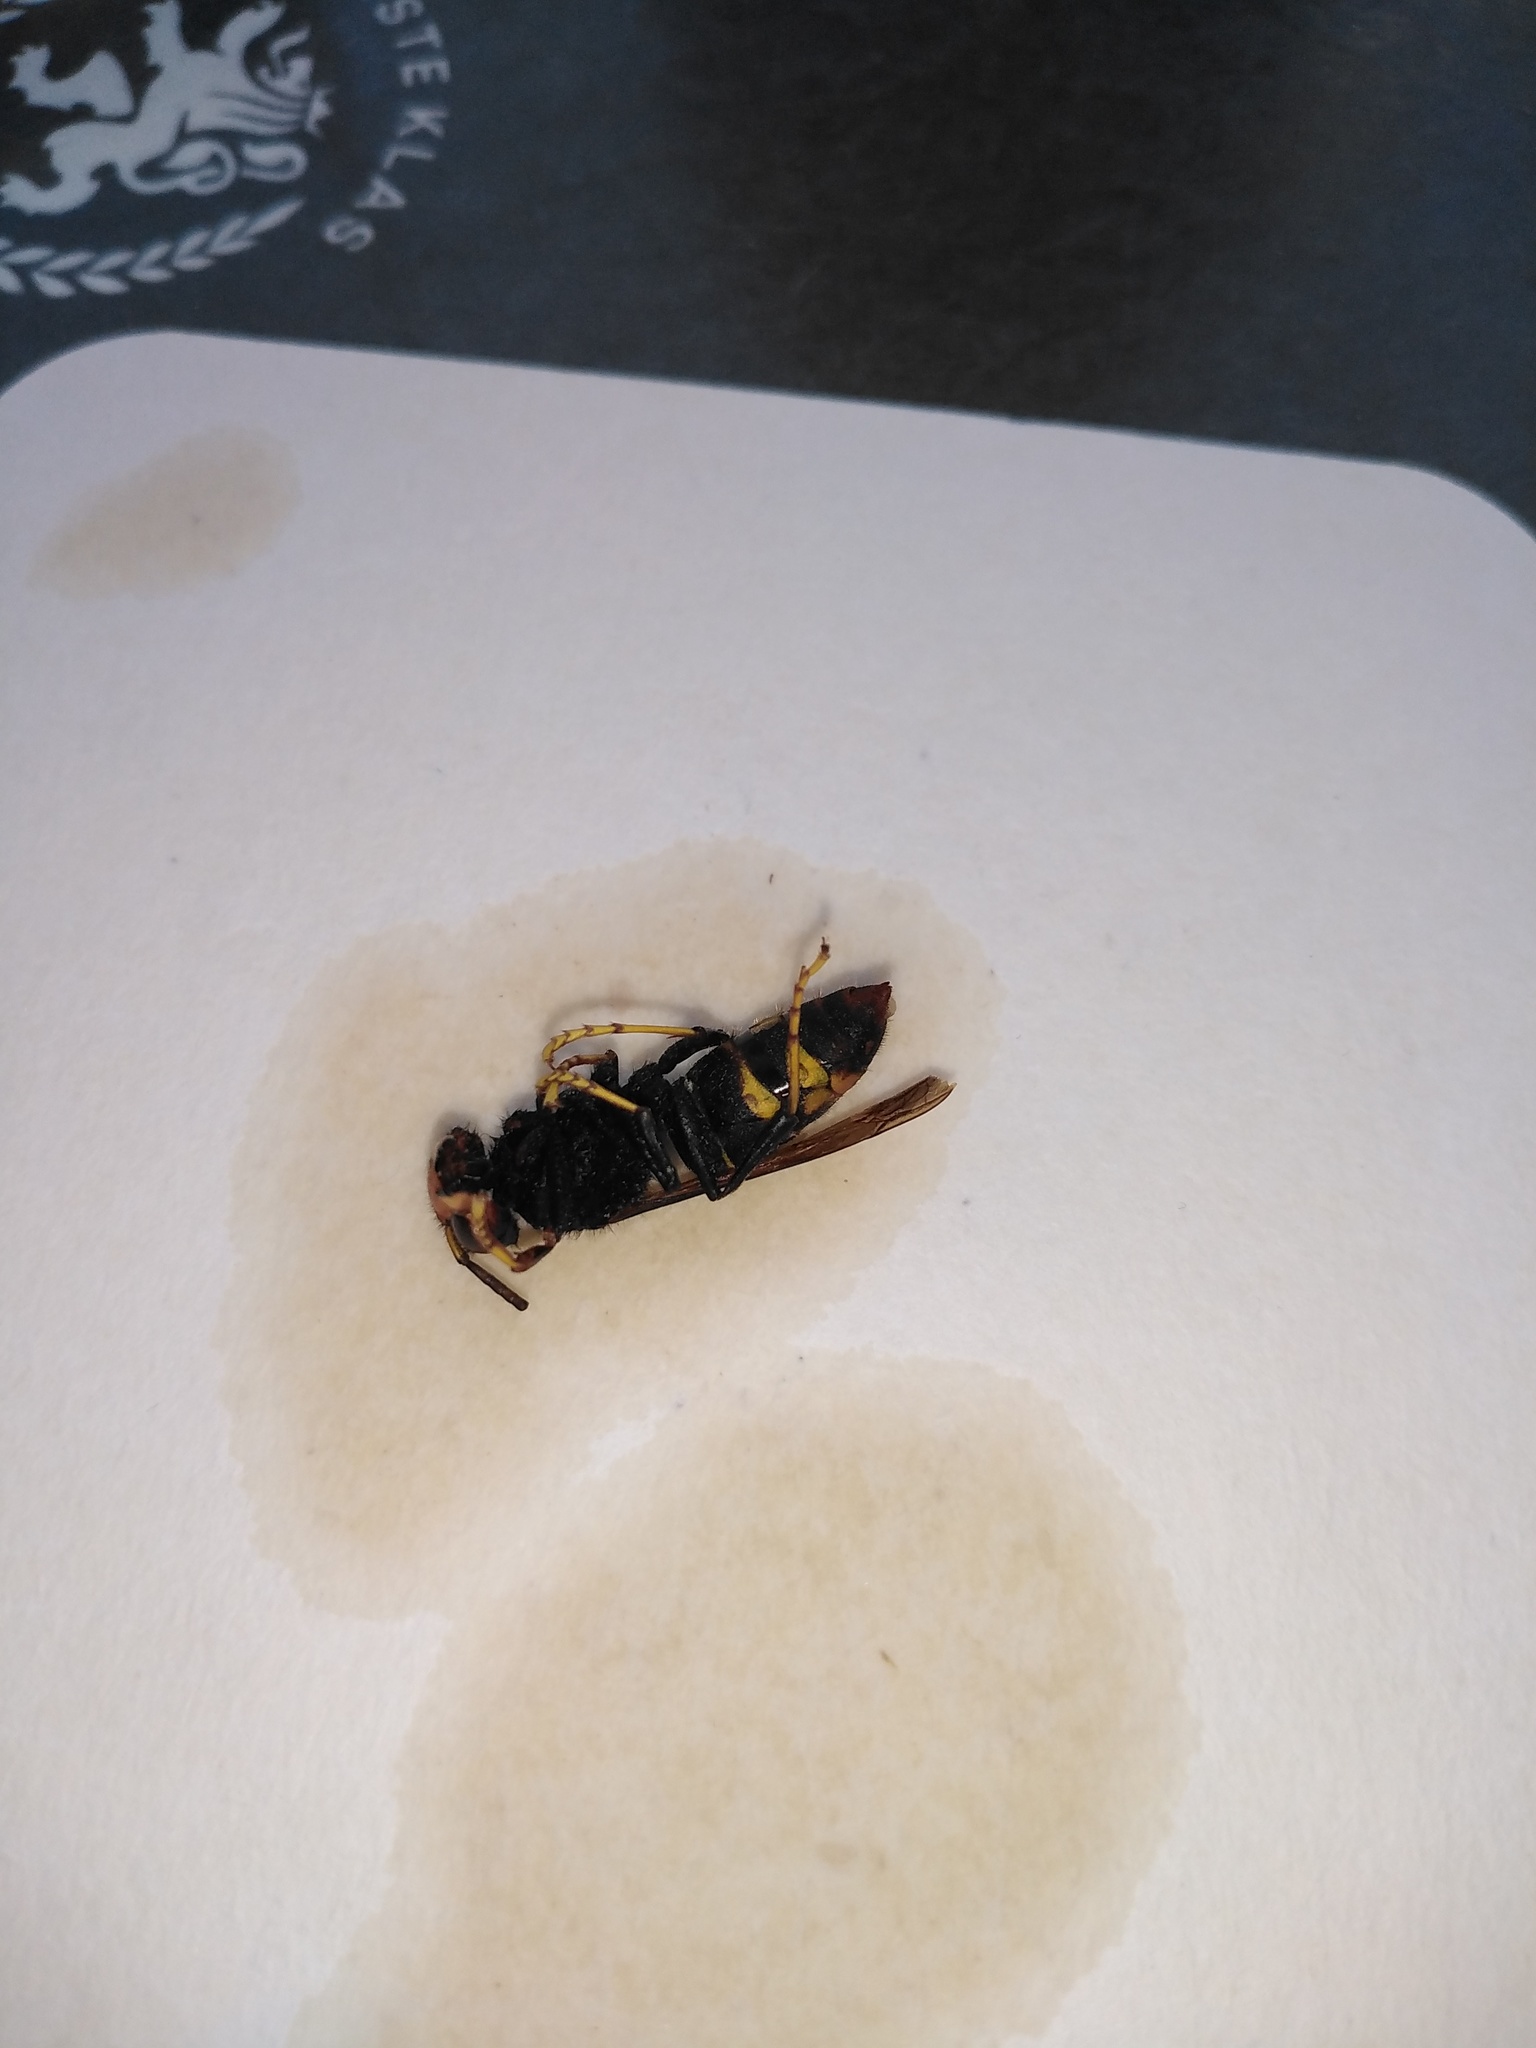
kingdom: Animalia
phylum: Arthropoda
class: Insecta
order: Hymenoptera
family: Vespidae
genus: Vespa
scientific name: Vespa velutina
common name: Asian hornet
